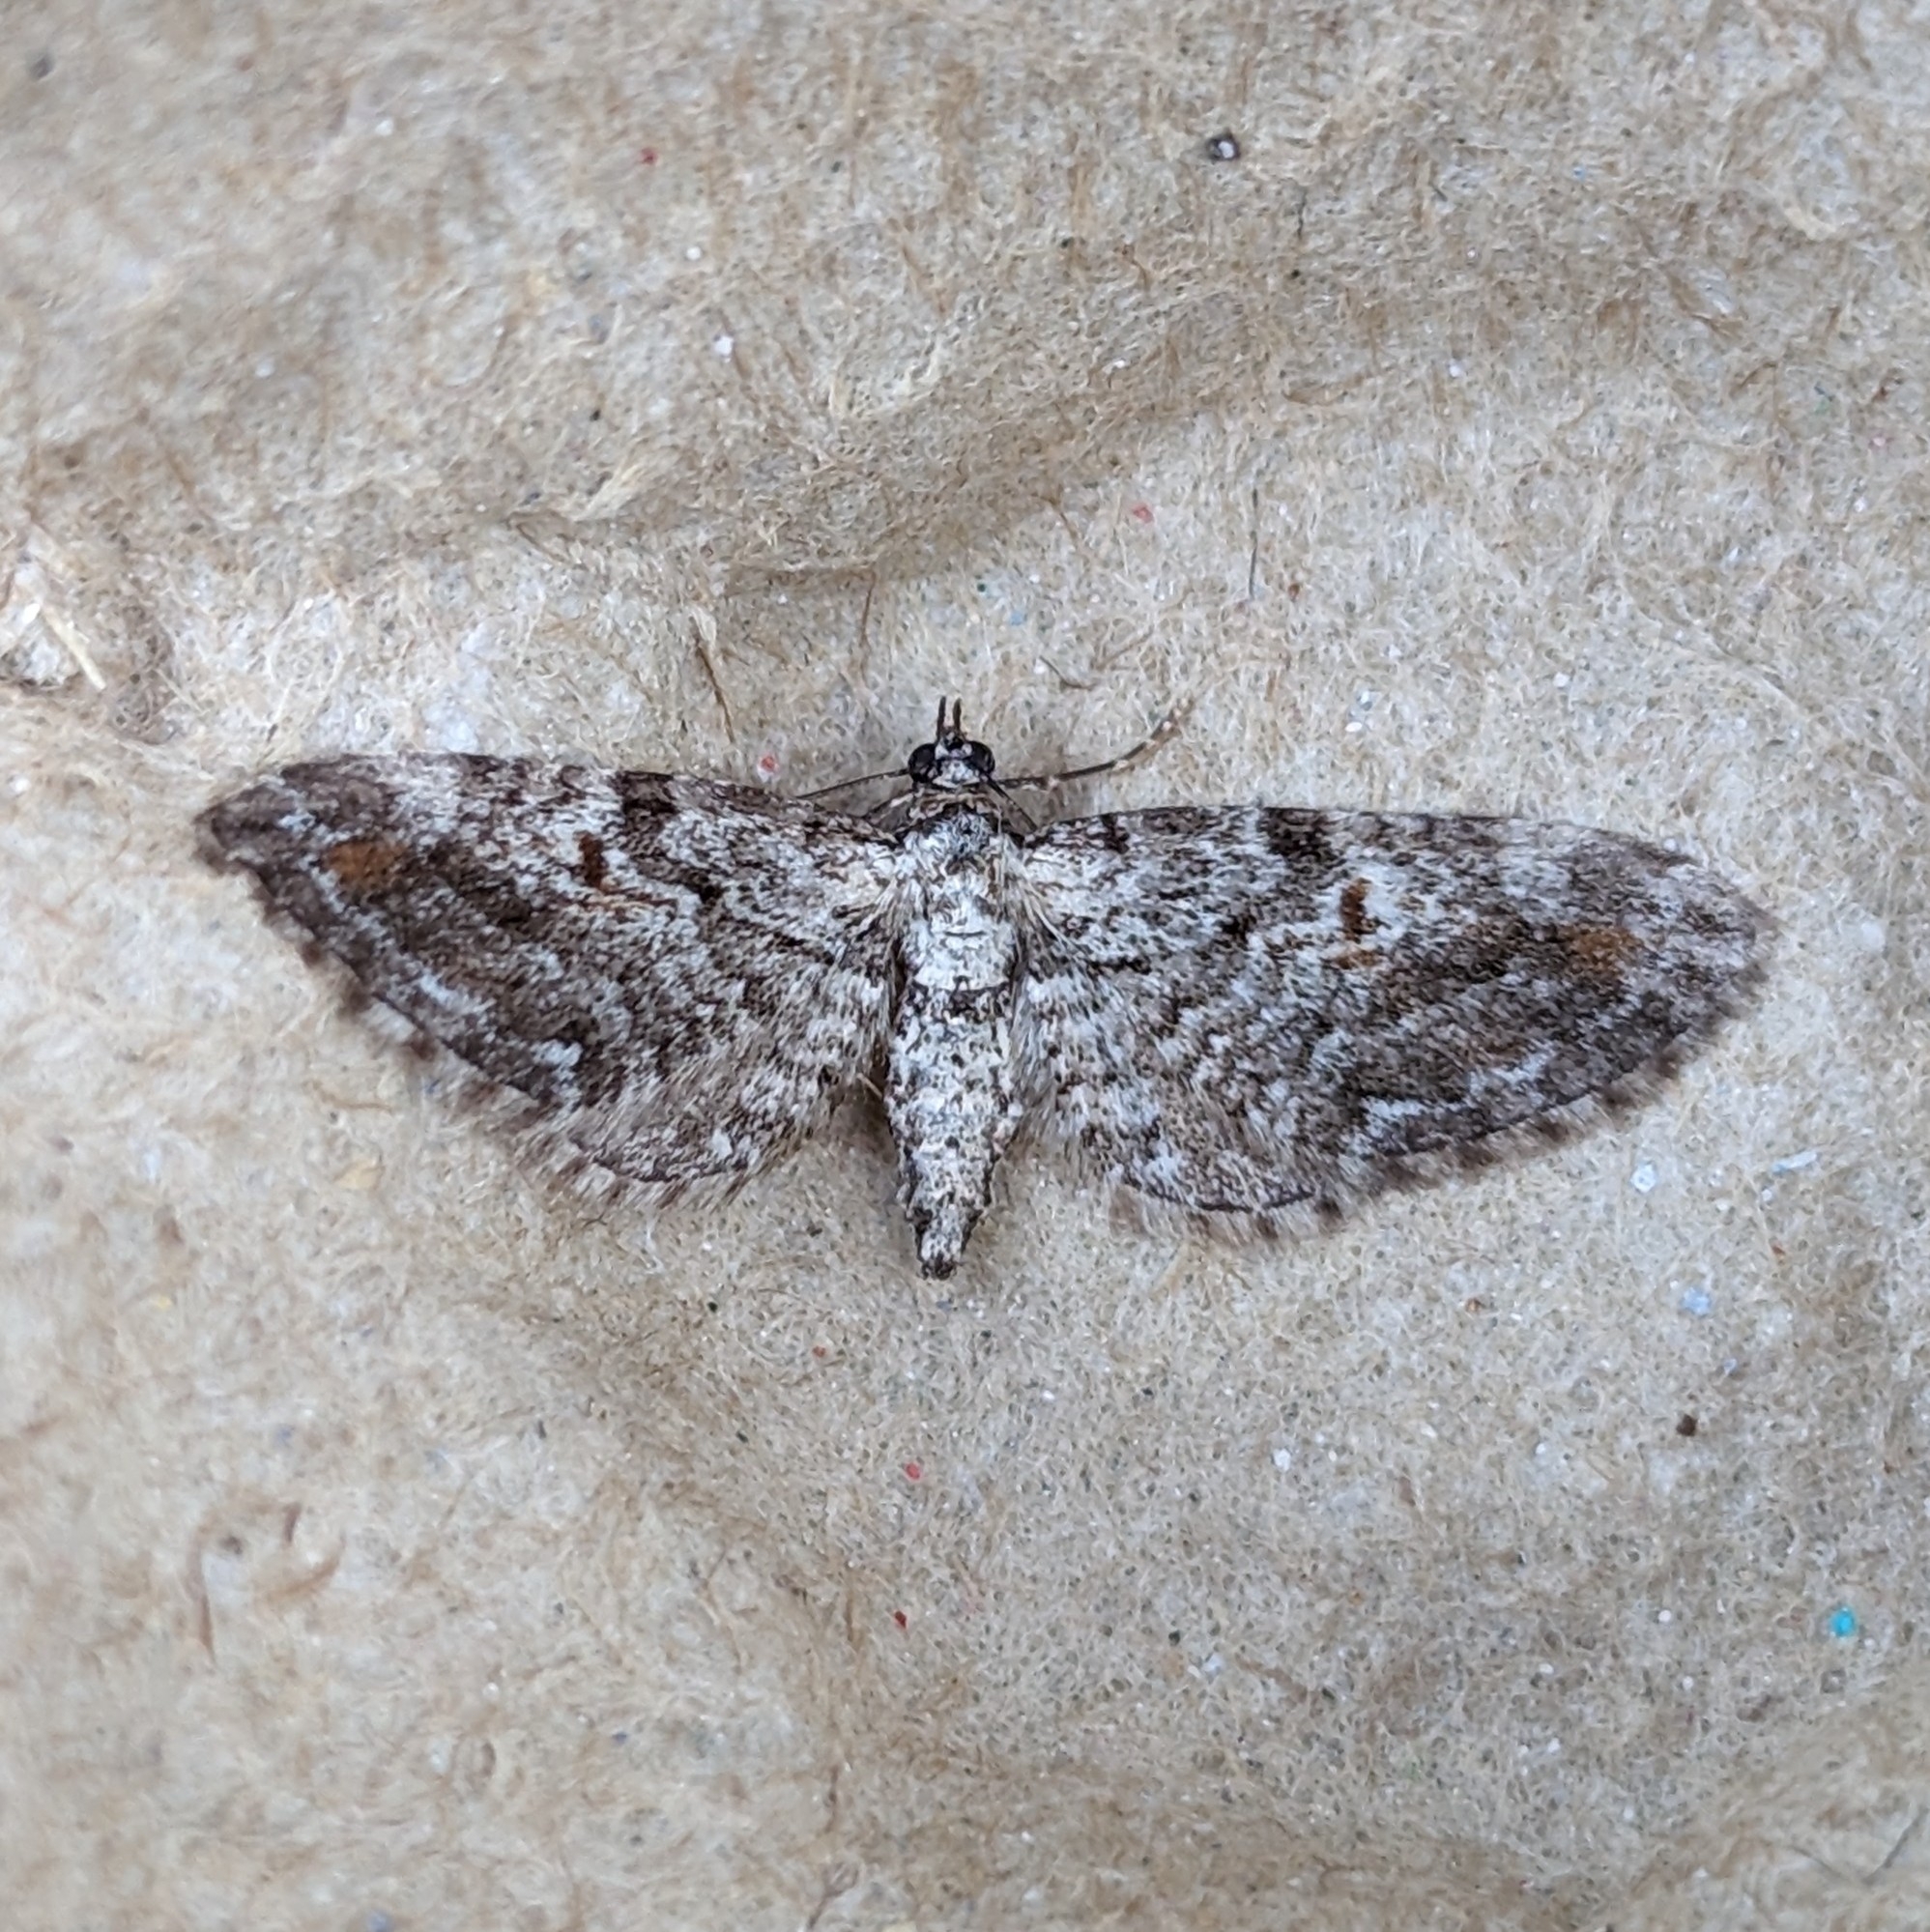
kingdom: Animalia
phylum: Arthropoda
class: Insecta
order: Lepidoptera
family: Geometridae
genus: Eupithecia
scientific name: Eupithecia graefii
